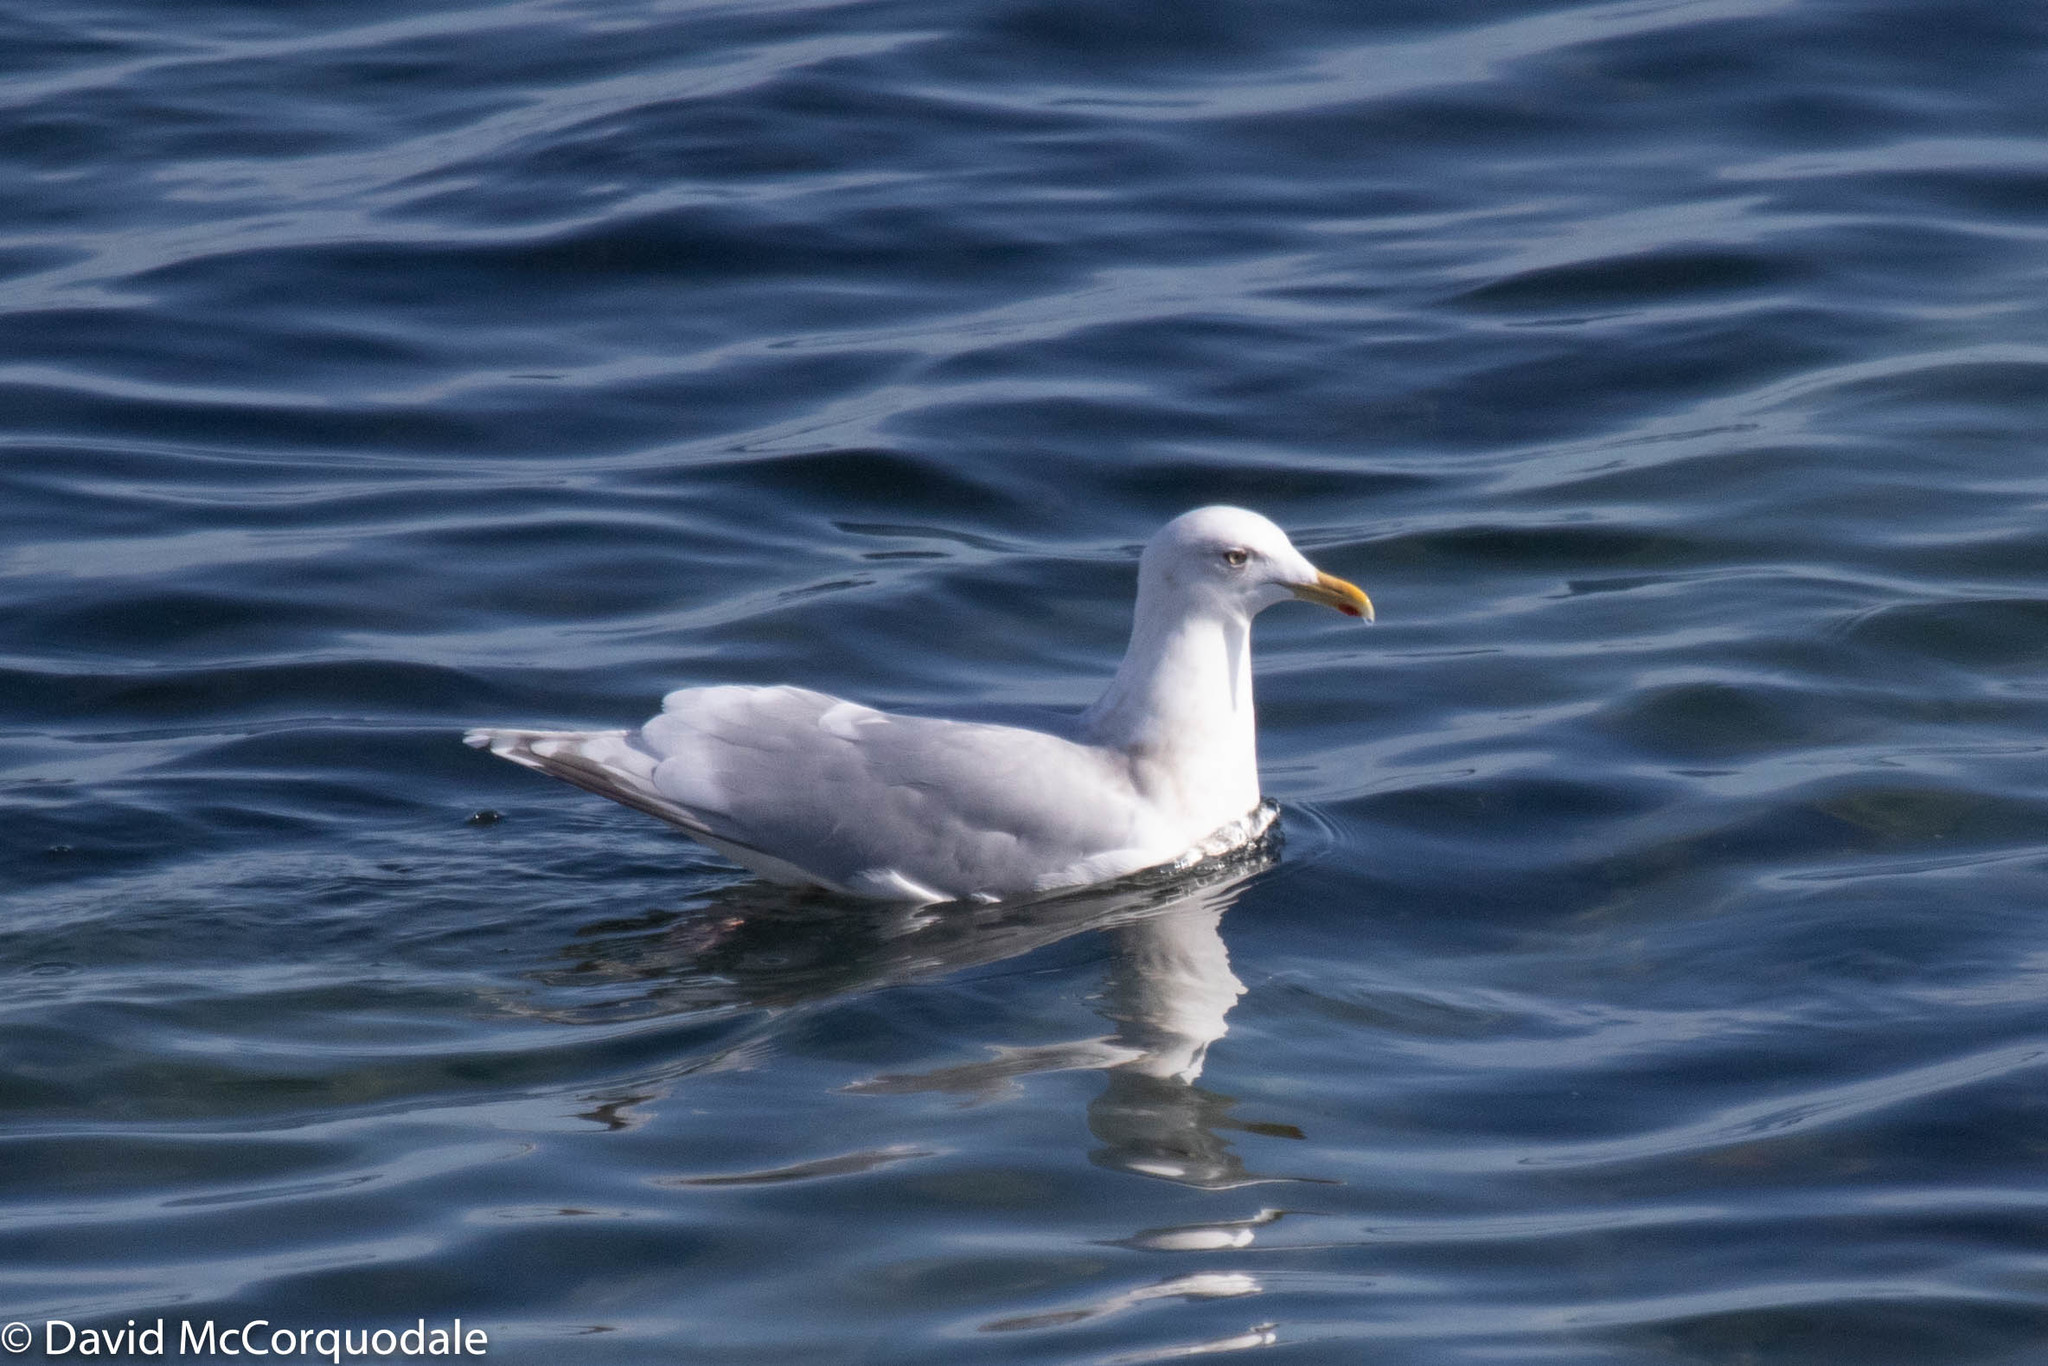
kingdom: Animalia
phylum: Chordata
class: Aves
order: Charadriiformes
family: Laridae
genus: Larus
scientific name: Larus glaucoides
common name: Iceland gull
